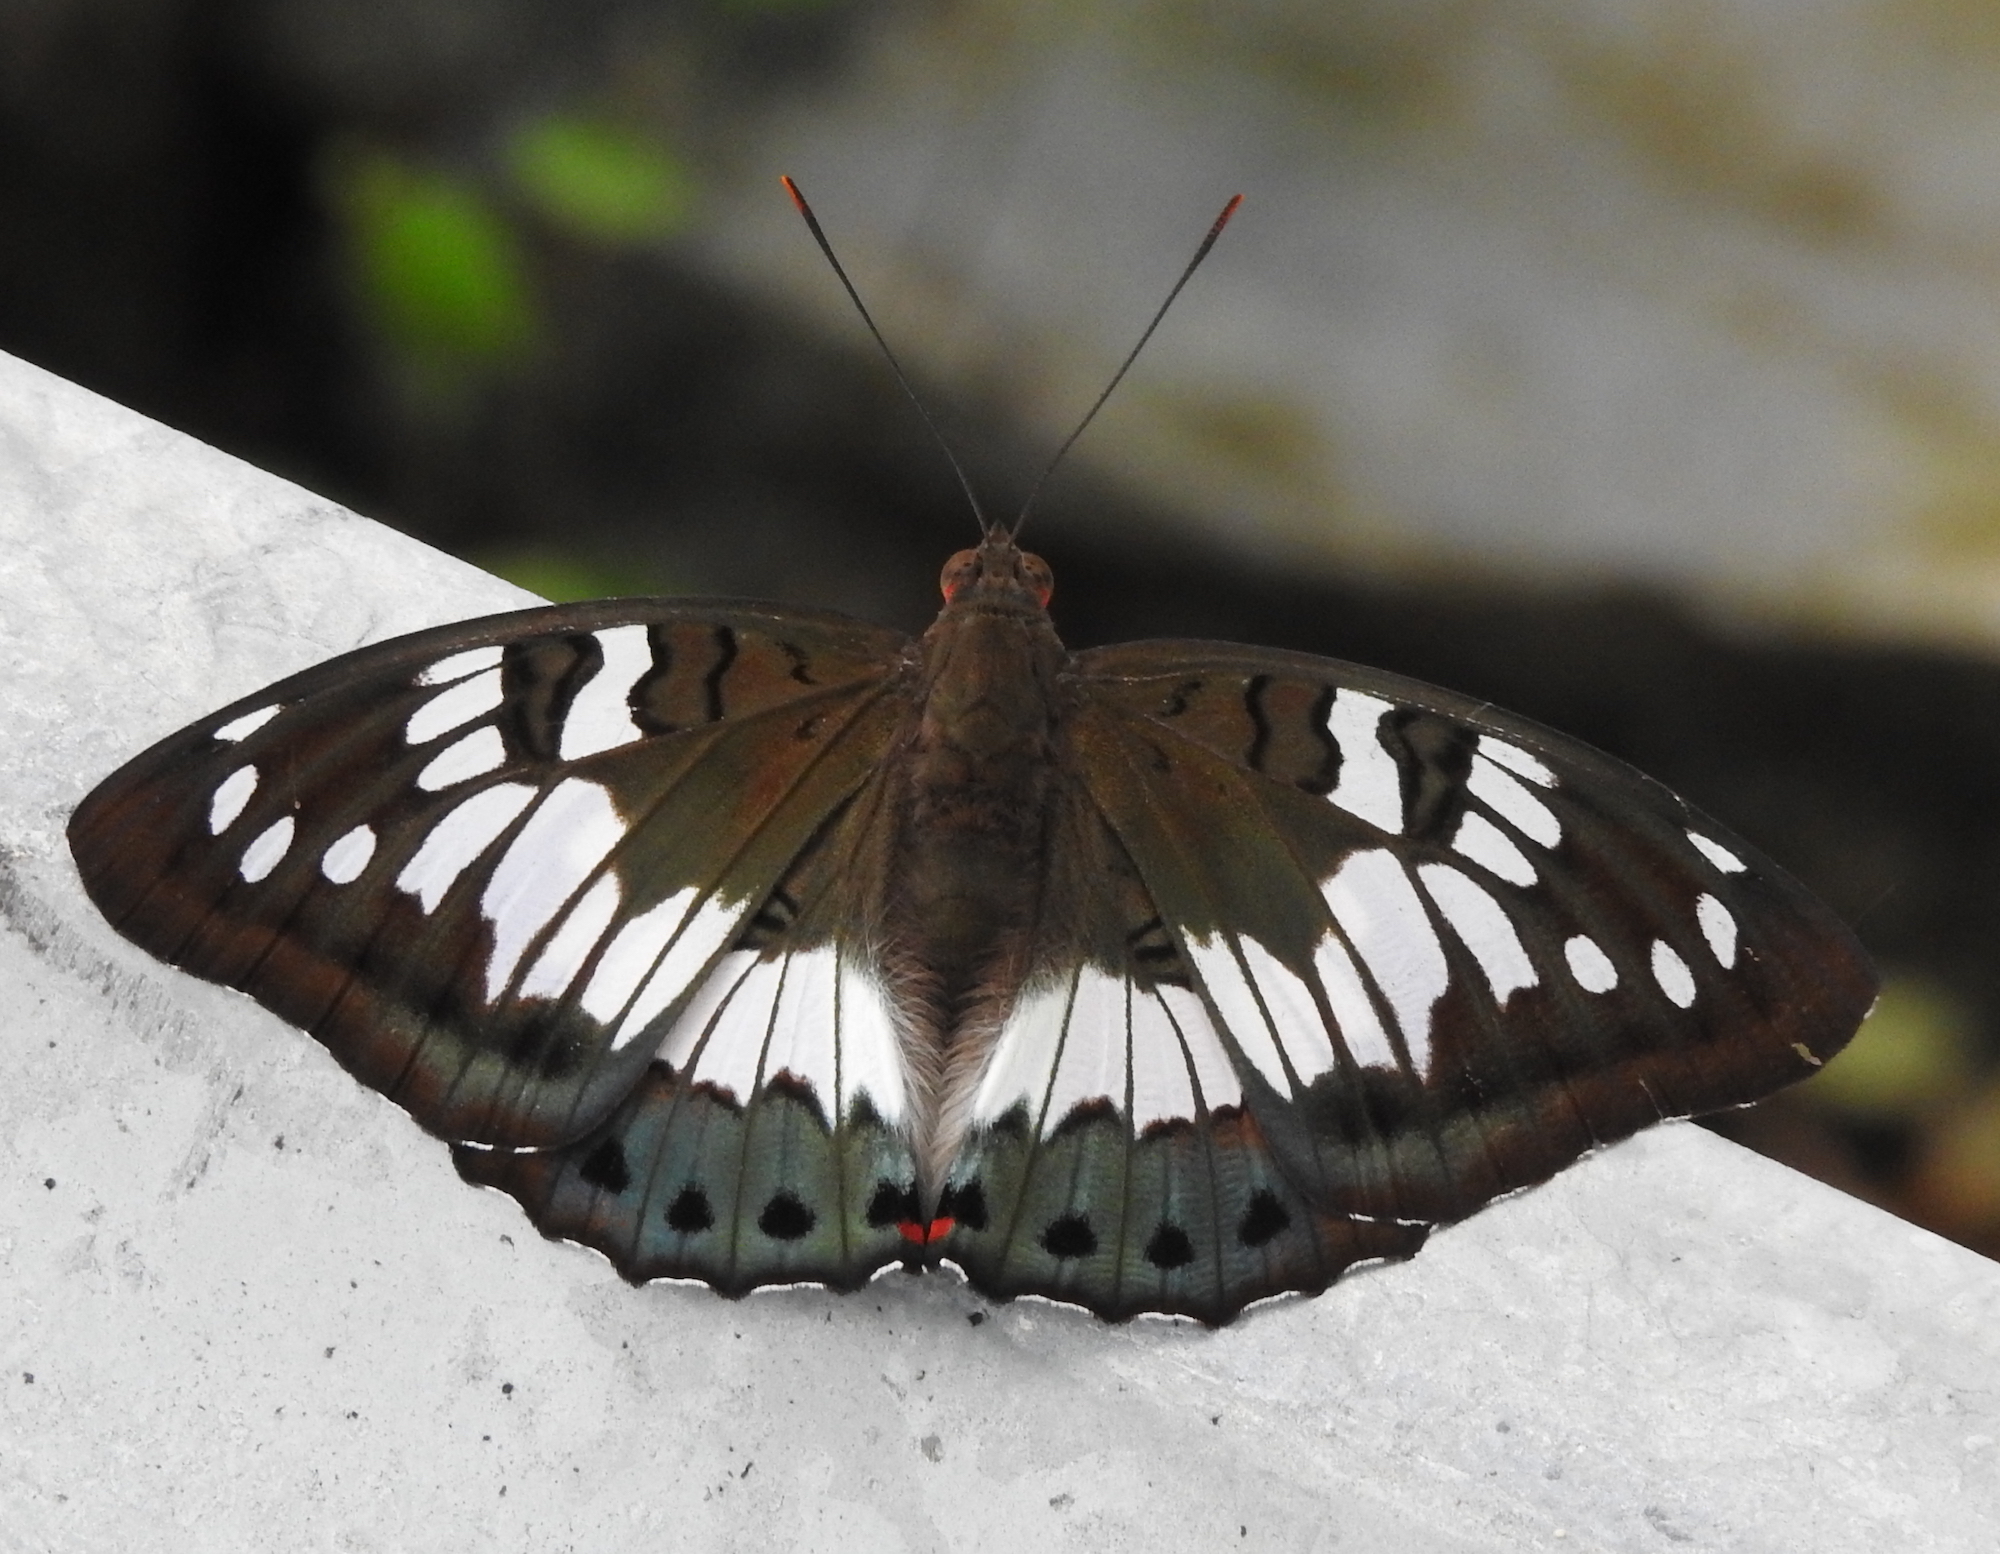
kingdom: Animalia
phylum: Arthropoda
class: Insecta
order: Lepidoptera
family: Nymphalidae
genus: Euthalia
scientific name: Euthalia adonia
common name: Green baron
